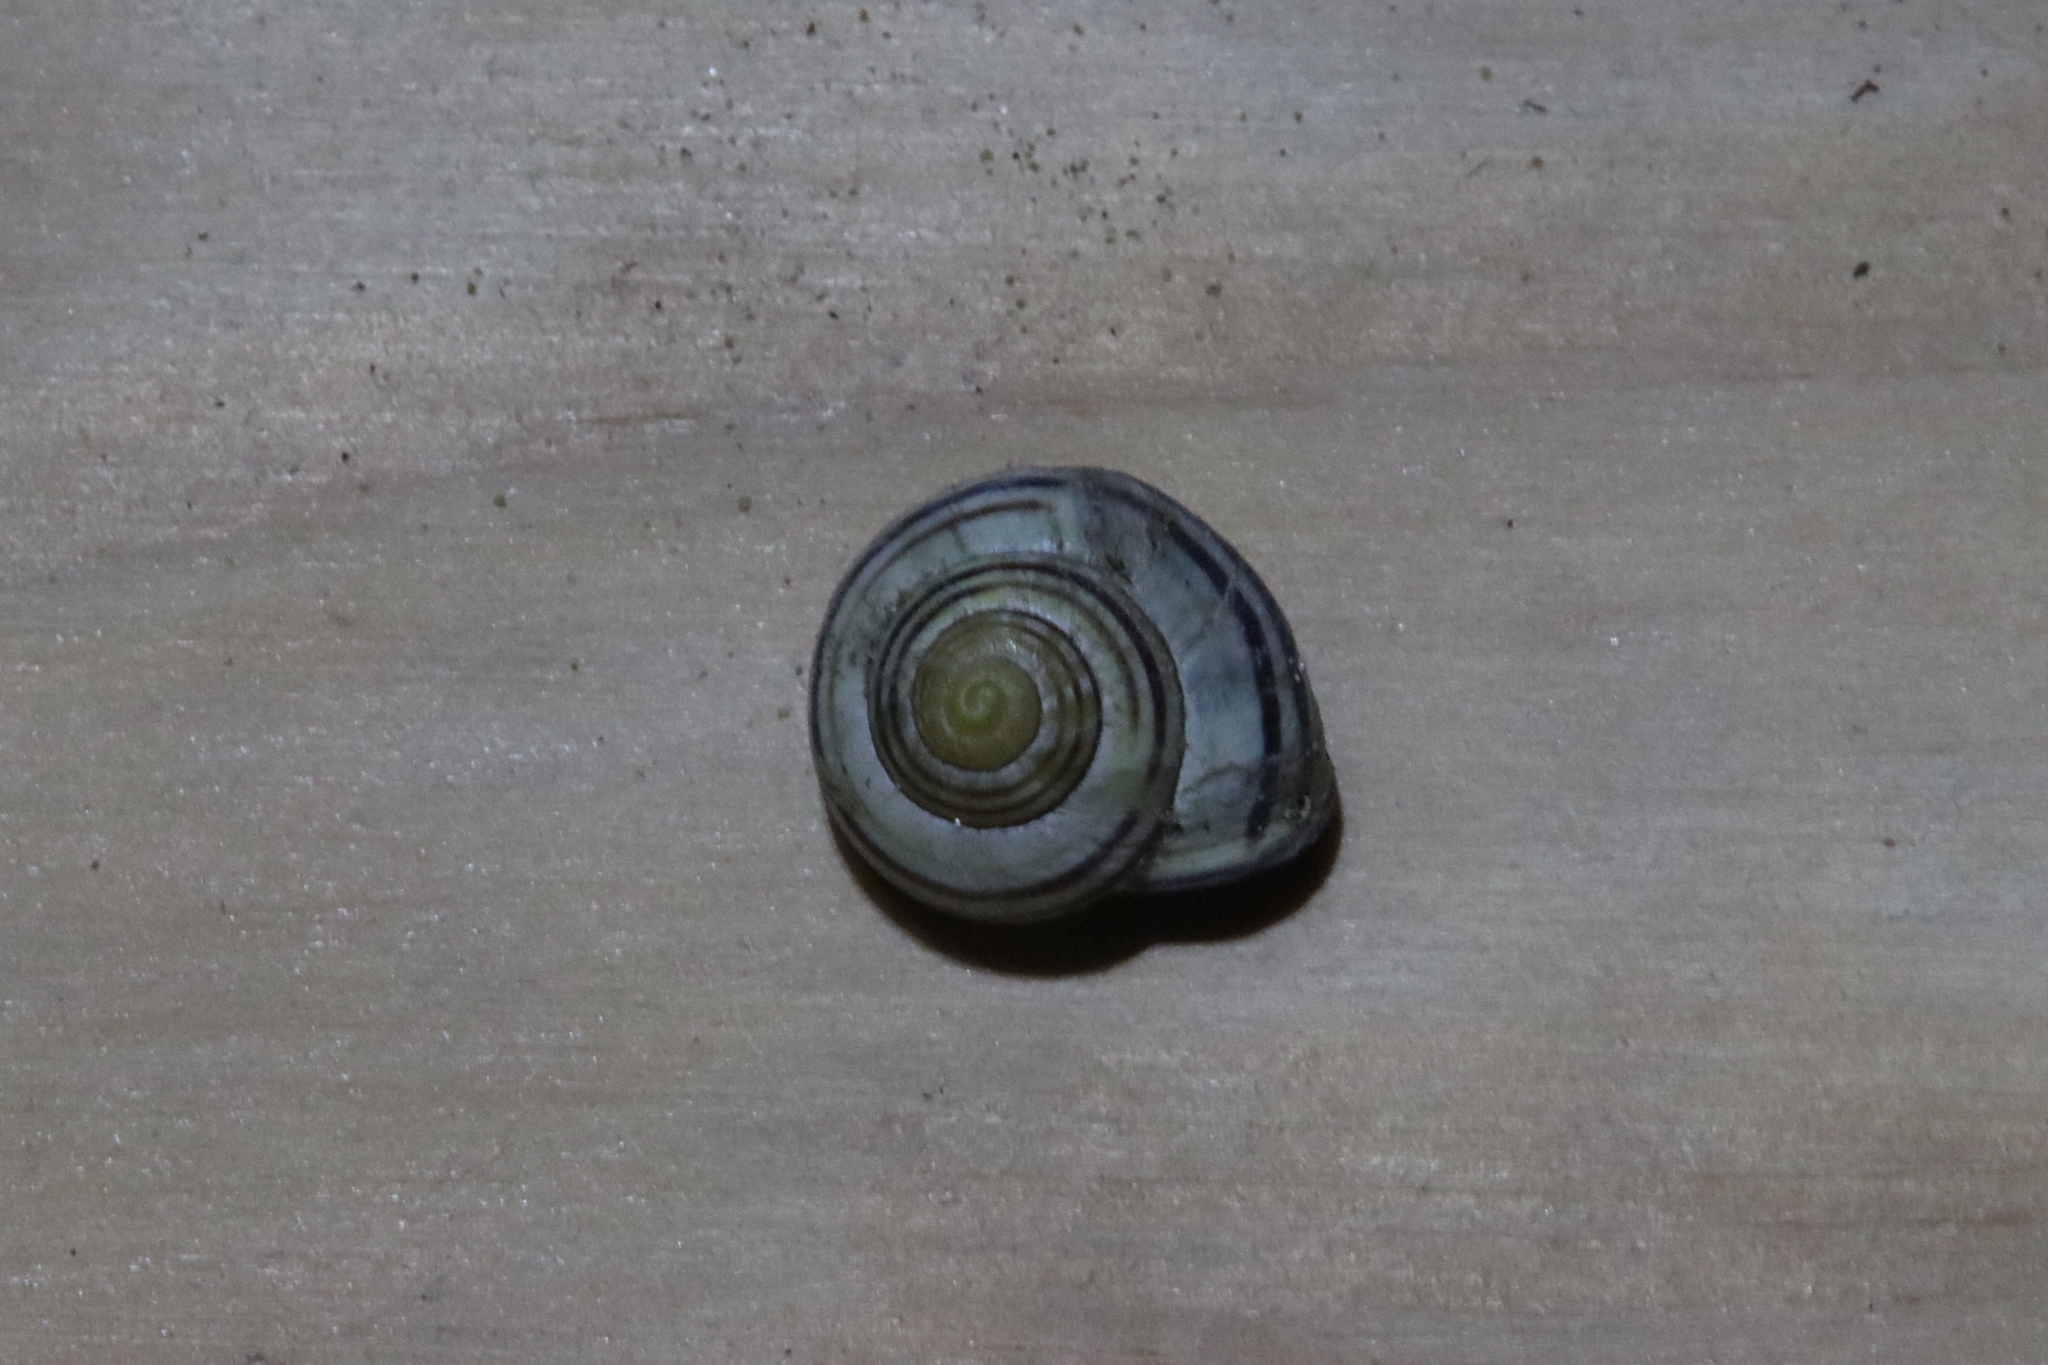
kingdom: Animalia
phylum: Mollusca
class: Gastropoda
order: Stylommatophora
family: Helicidae
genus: Cepaea
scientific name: Cepaea nemoralis
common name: Grovesnail
